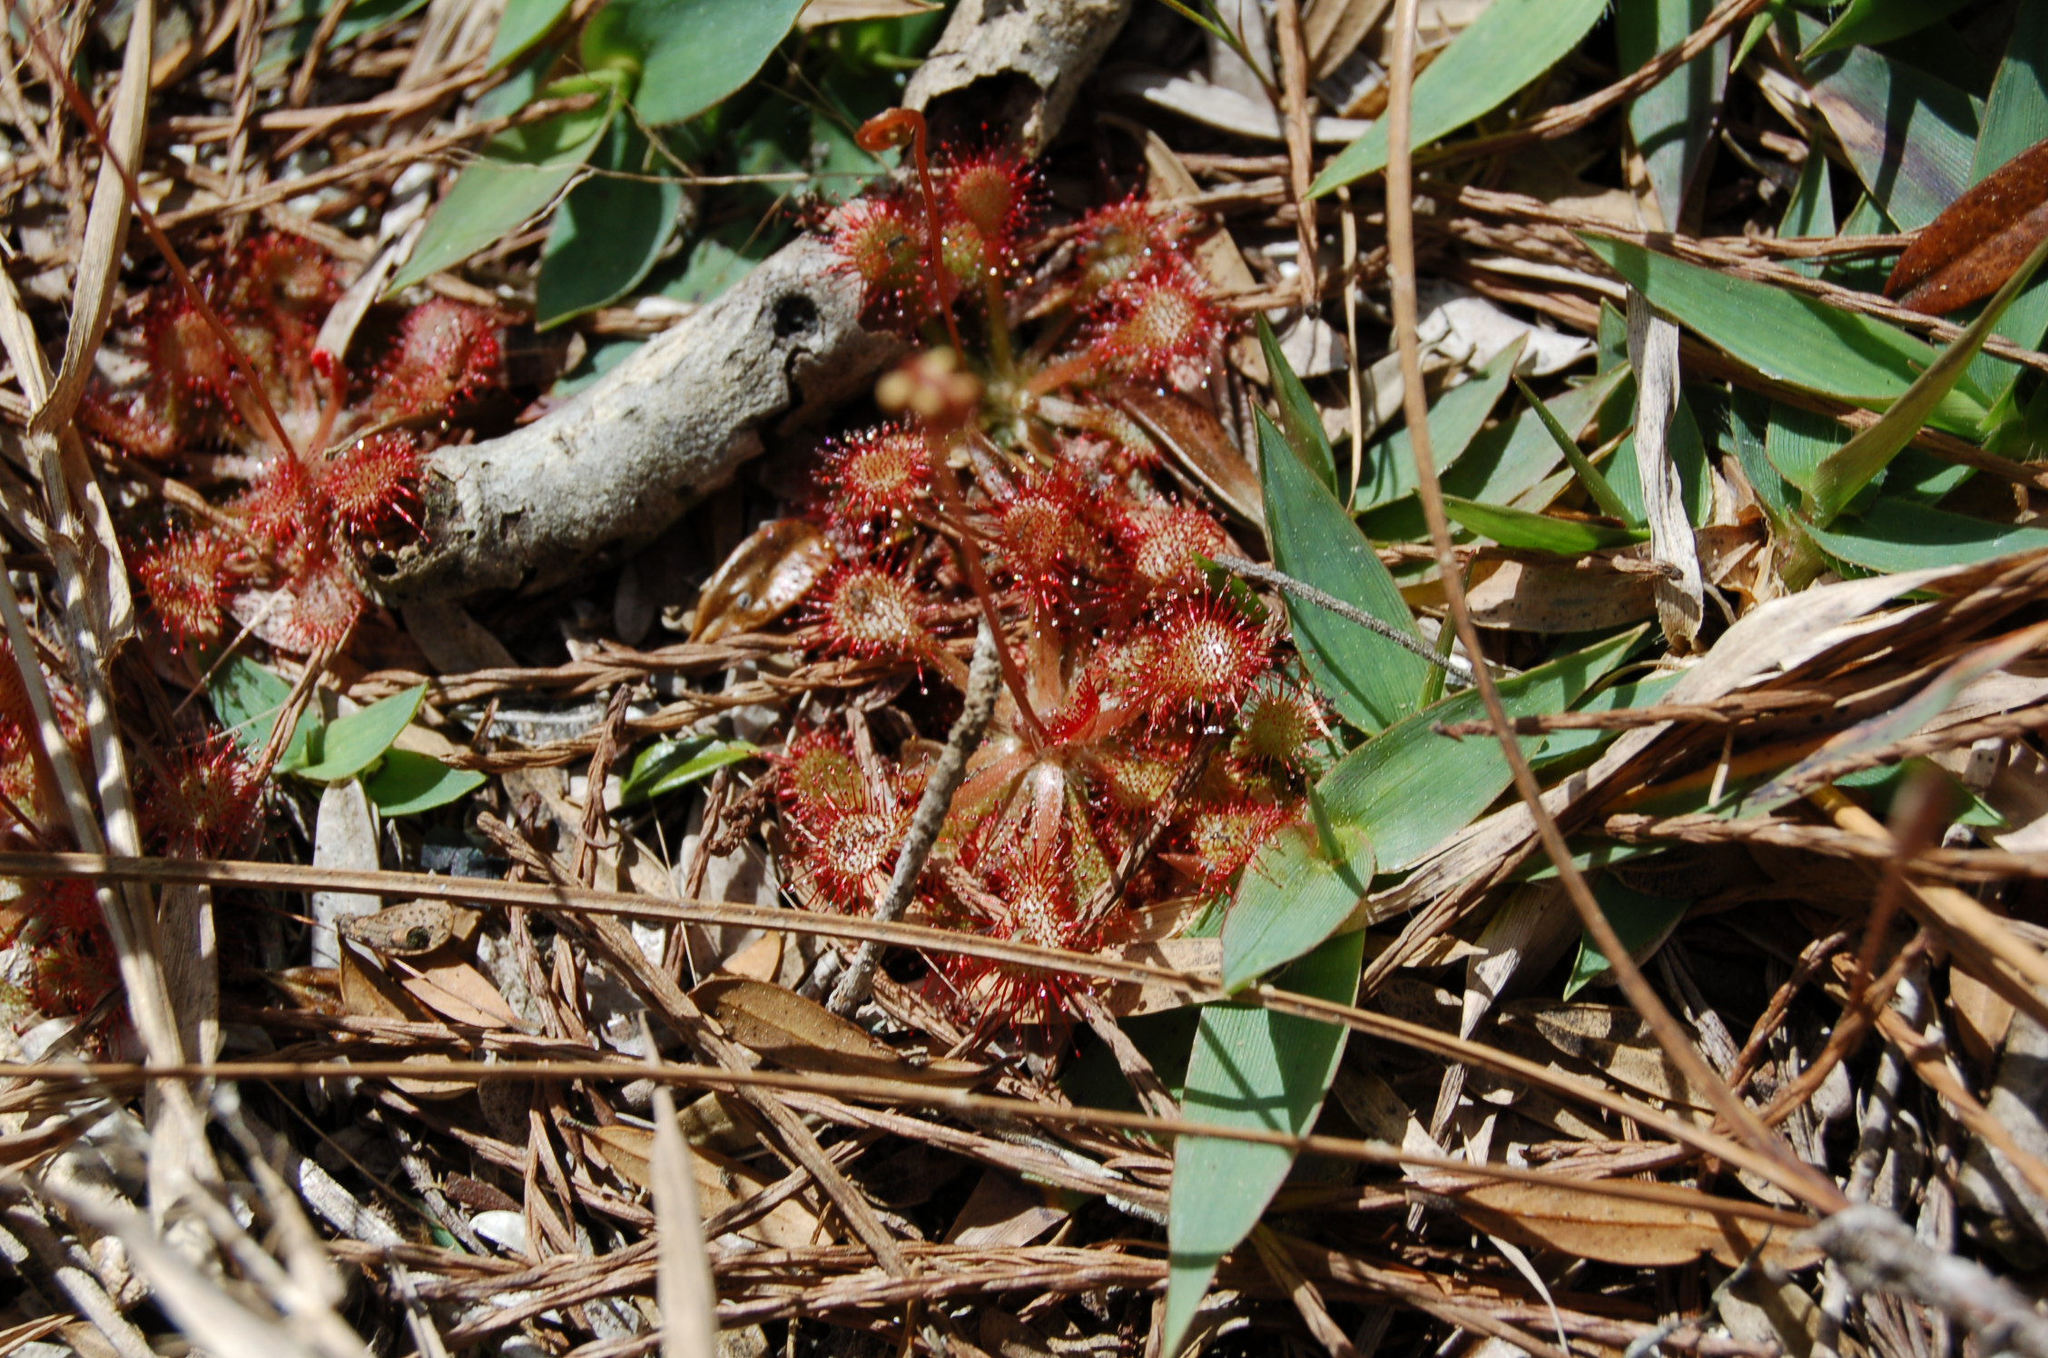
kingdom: Plantae
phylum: Tracheophyta
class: Magnoliopsida
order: Caryophyllales
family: Droseraceae
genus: Drosera
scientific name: Drosera capillaris
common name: Pink sundew
